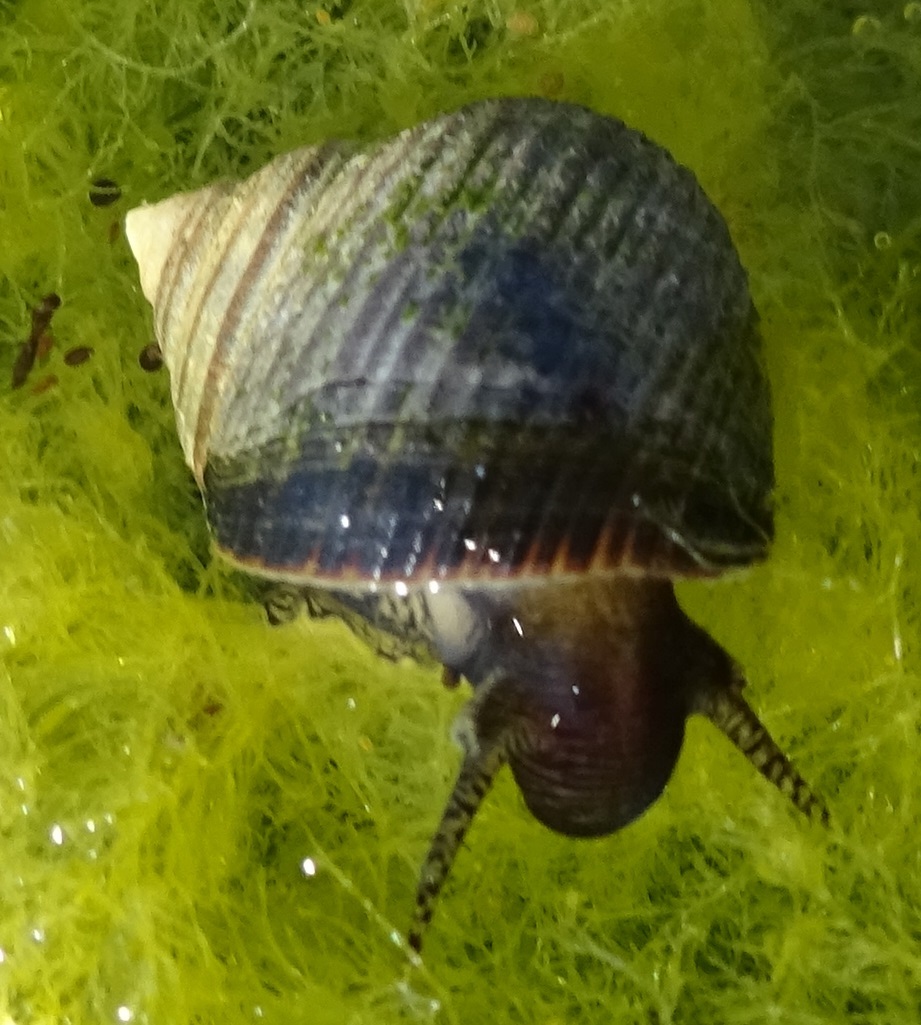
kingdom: Animalia
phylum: Mollusca
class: Gastropoda
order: Littorinimorpha
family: Littorinidae
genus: Littorina
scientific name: Littorina littorea
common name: Common periwinkle
